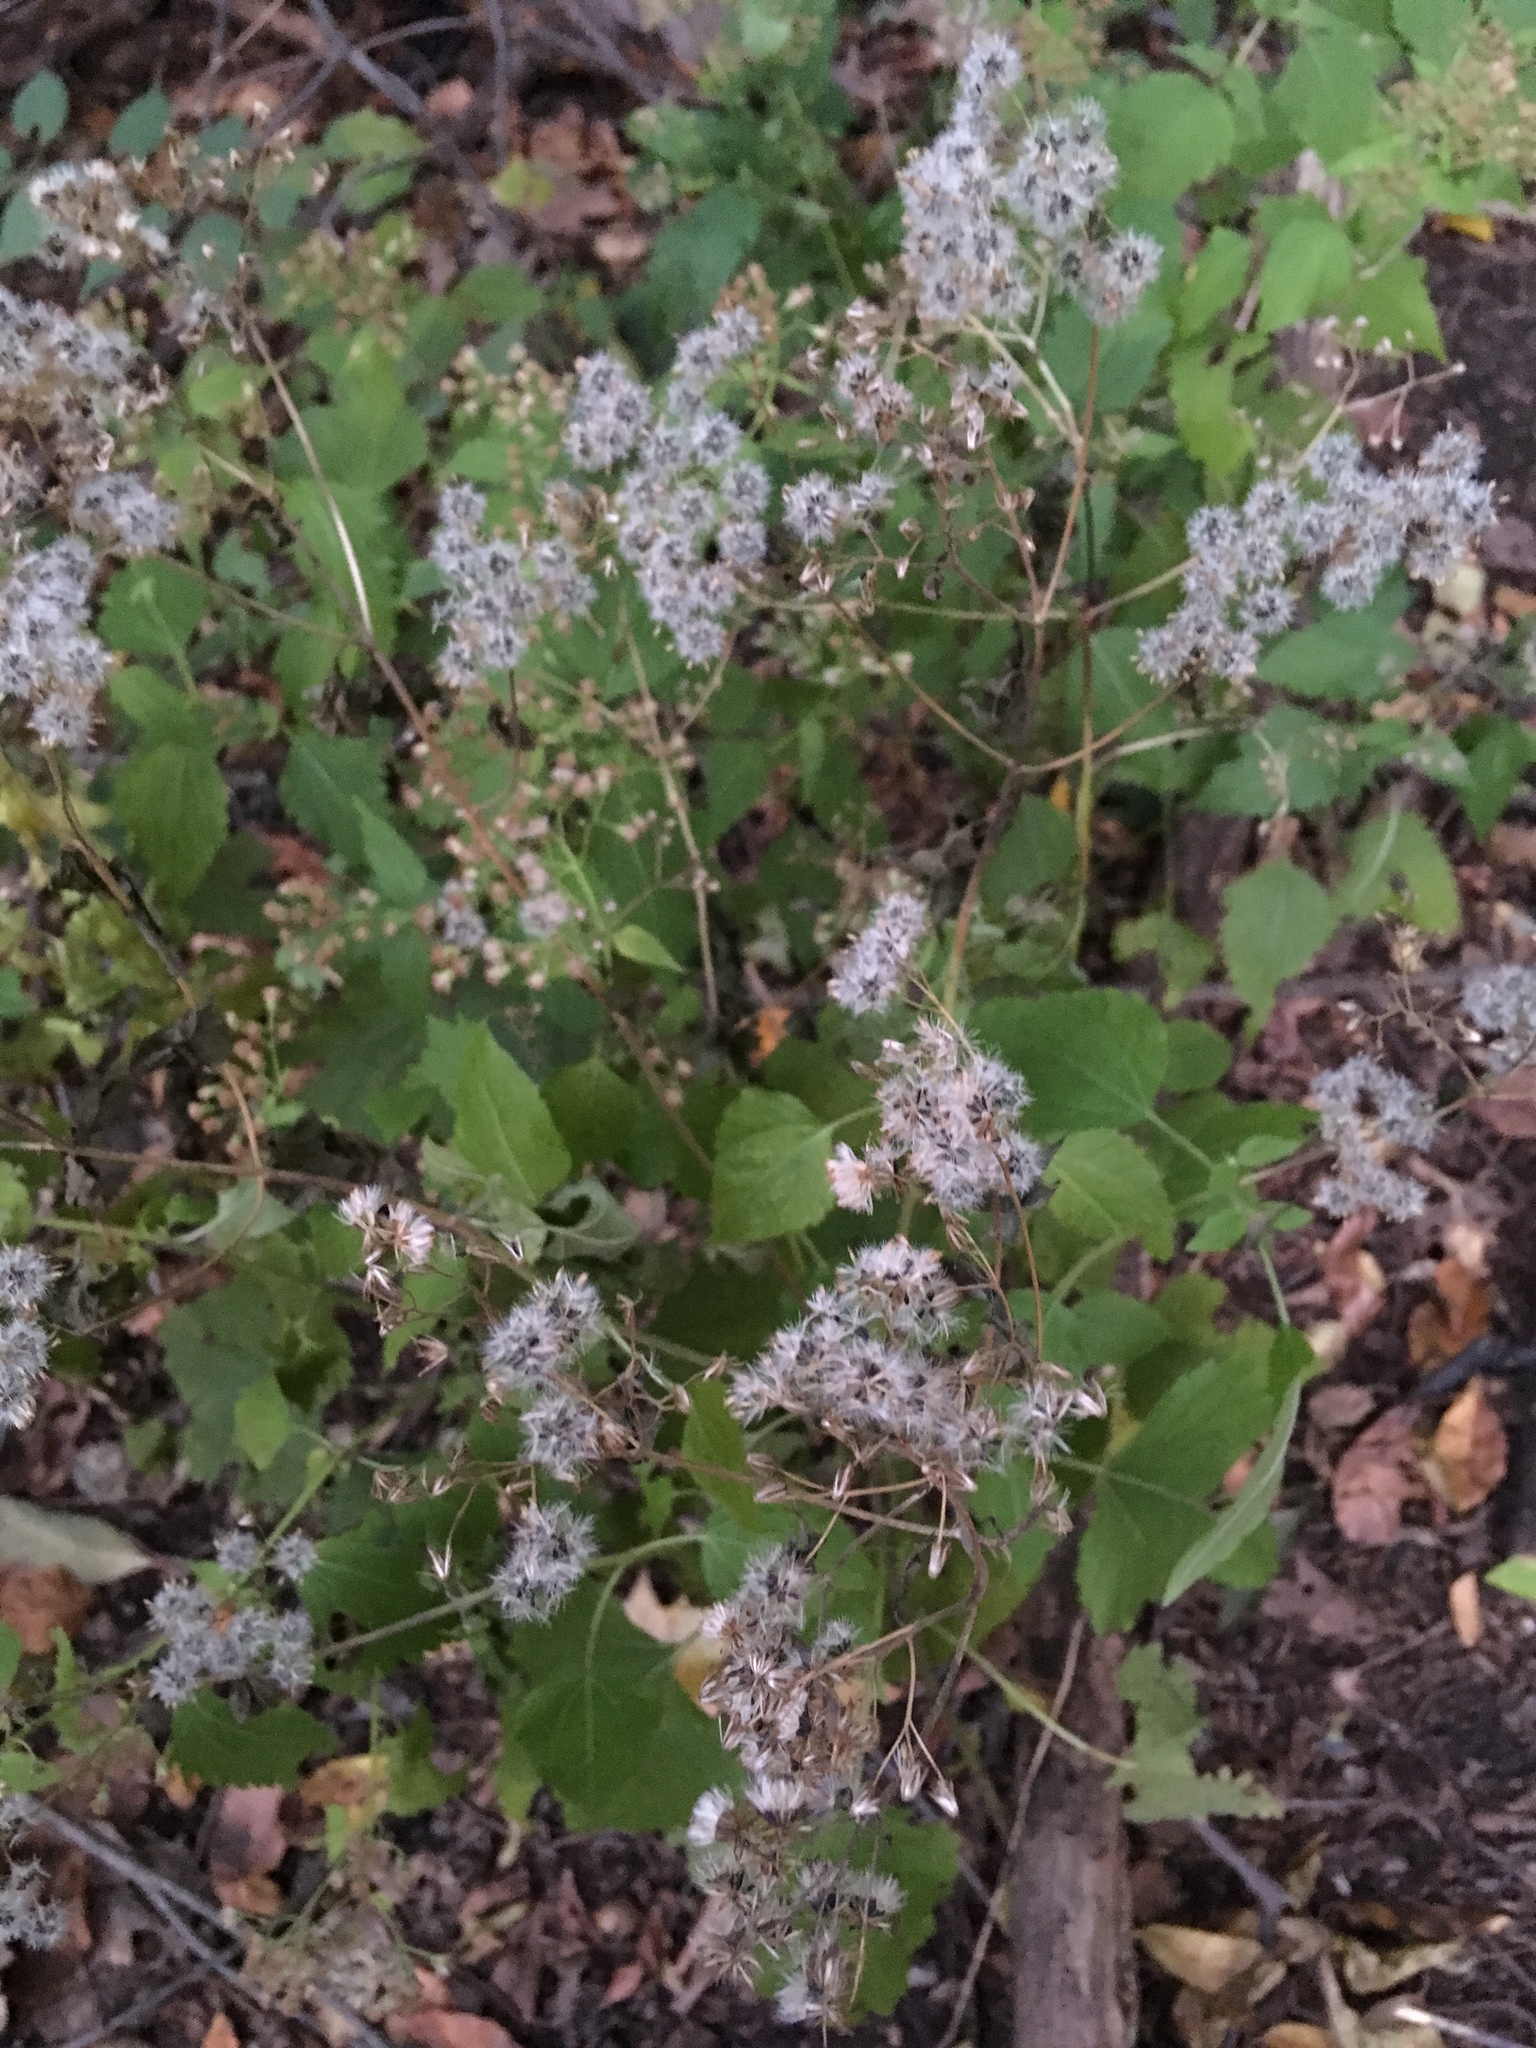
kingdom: Plantae
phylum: Tracheophyta
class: Magnoliopsida
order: Asterales
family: Asteraceae
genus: Ageratina
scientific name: Ageratina altissima
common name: White snakeroot
